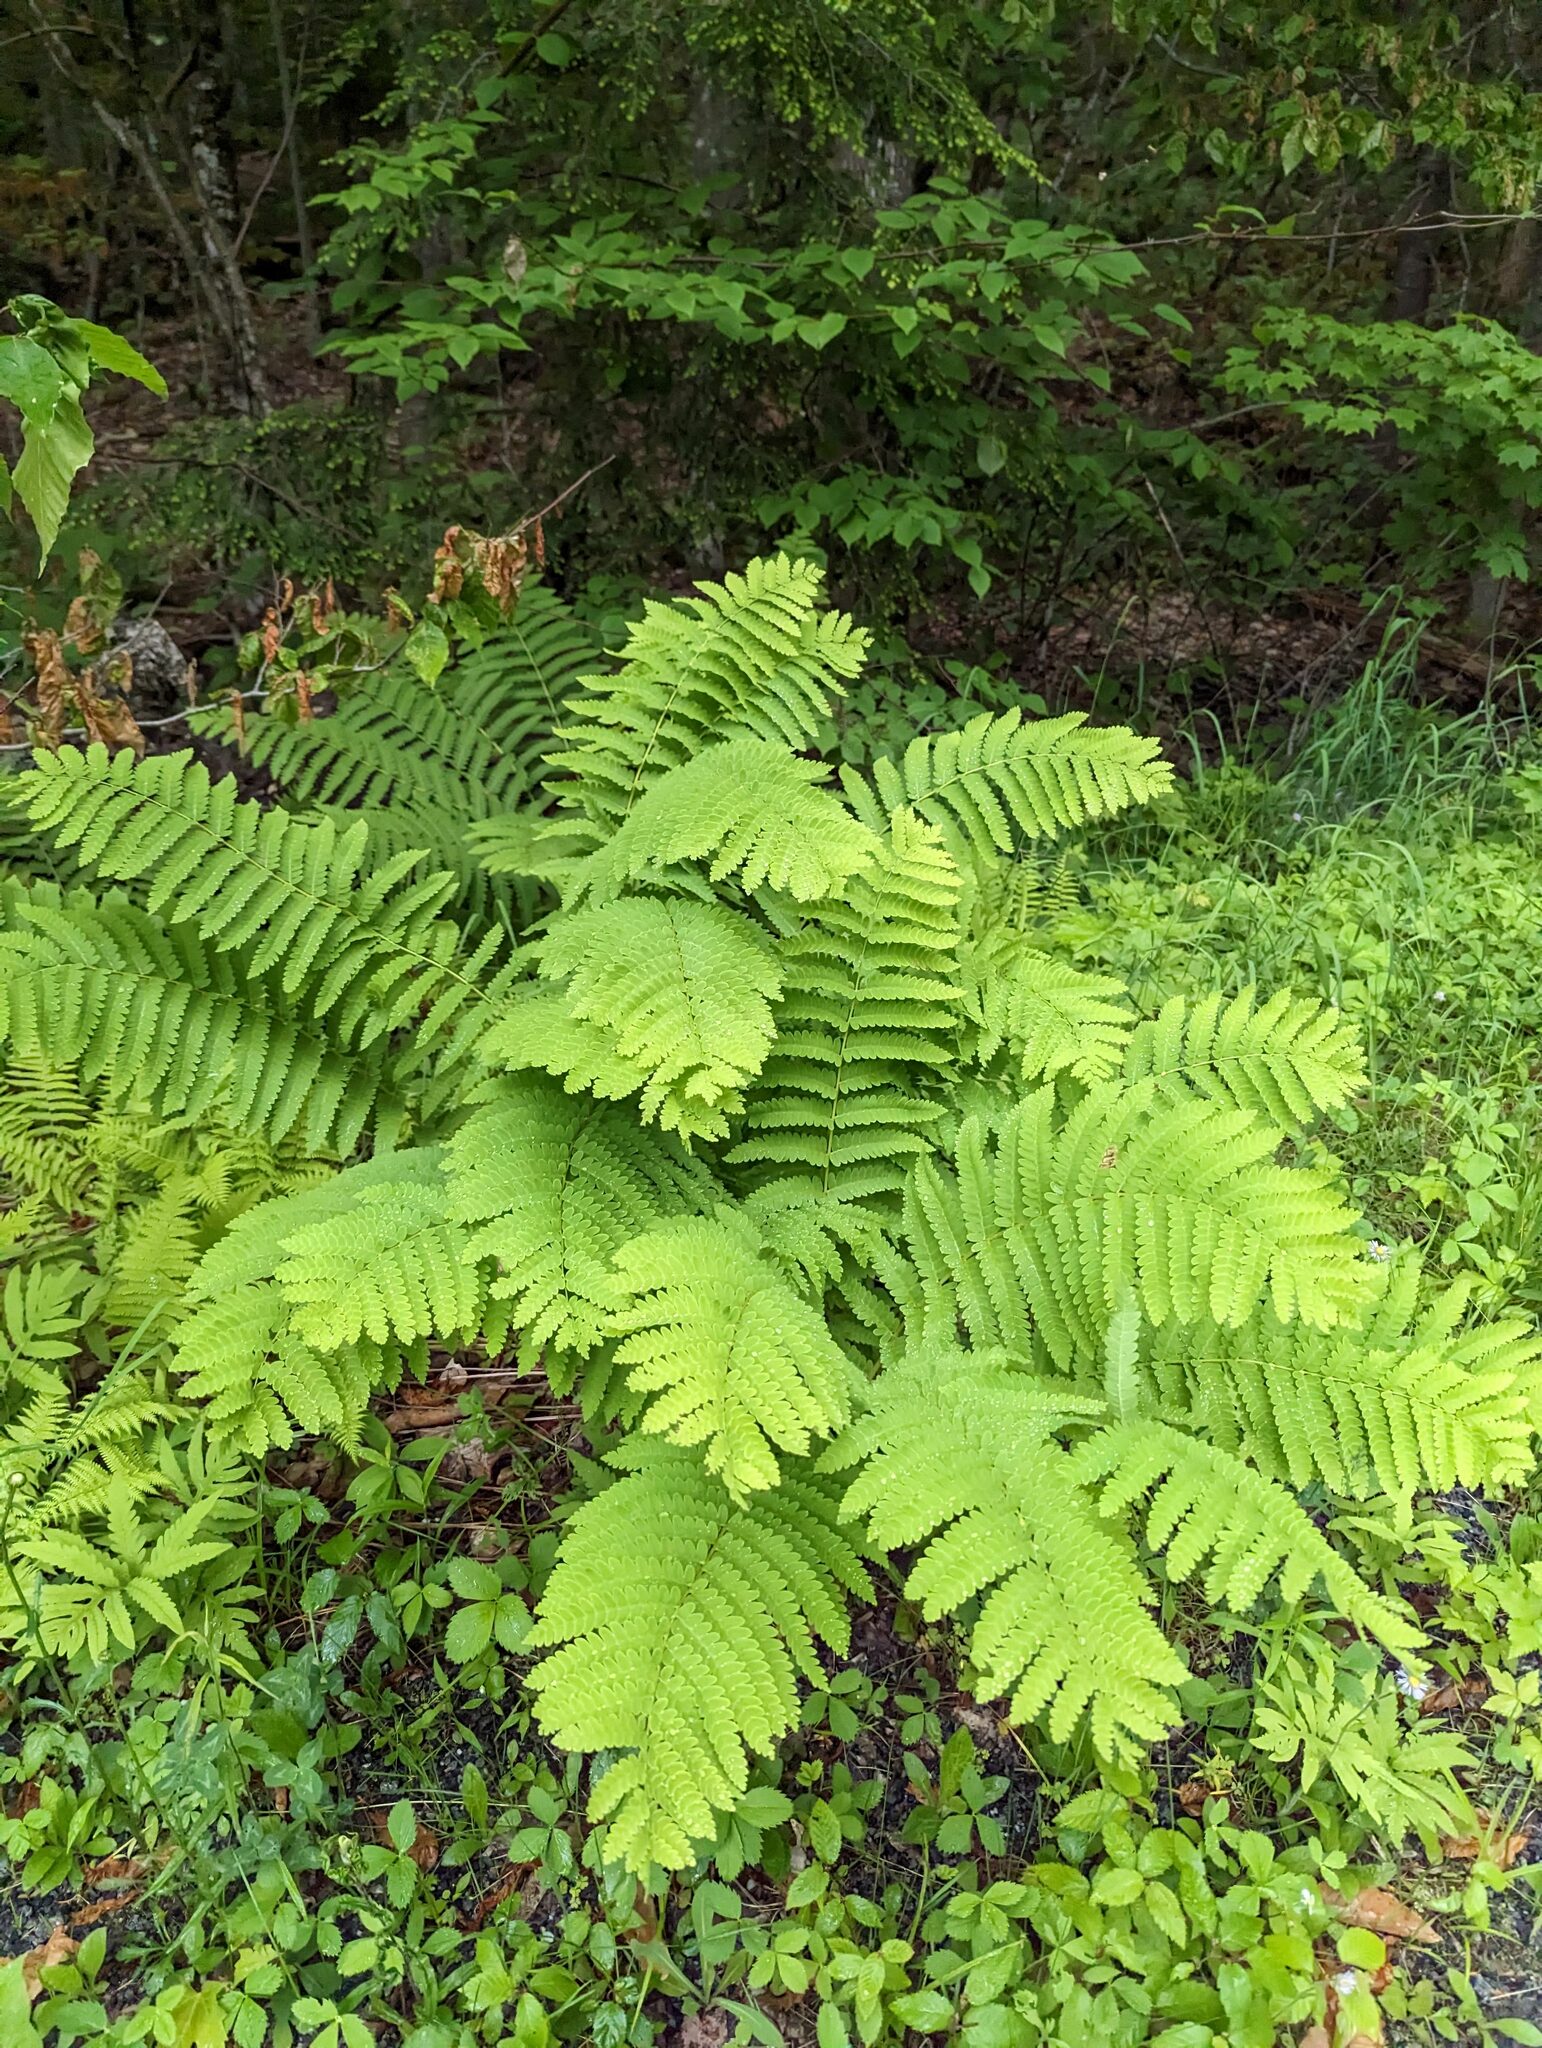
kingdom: Plantae
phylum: Tracheophyta
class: Polypodiopsida
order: Osmundales
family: Osmundaceae
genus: Claytosmunda
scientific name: Claytosmunda claytoniana
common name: Clayton's fern
